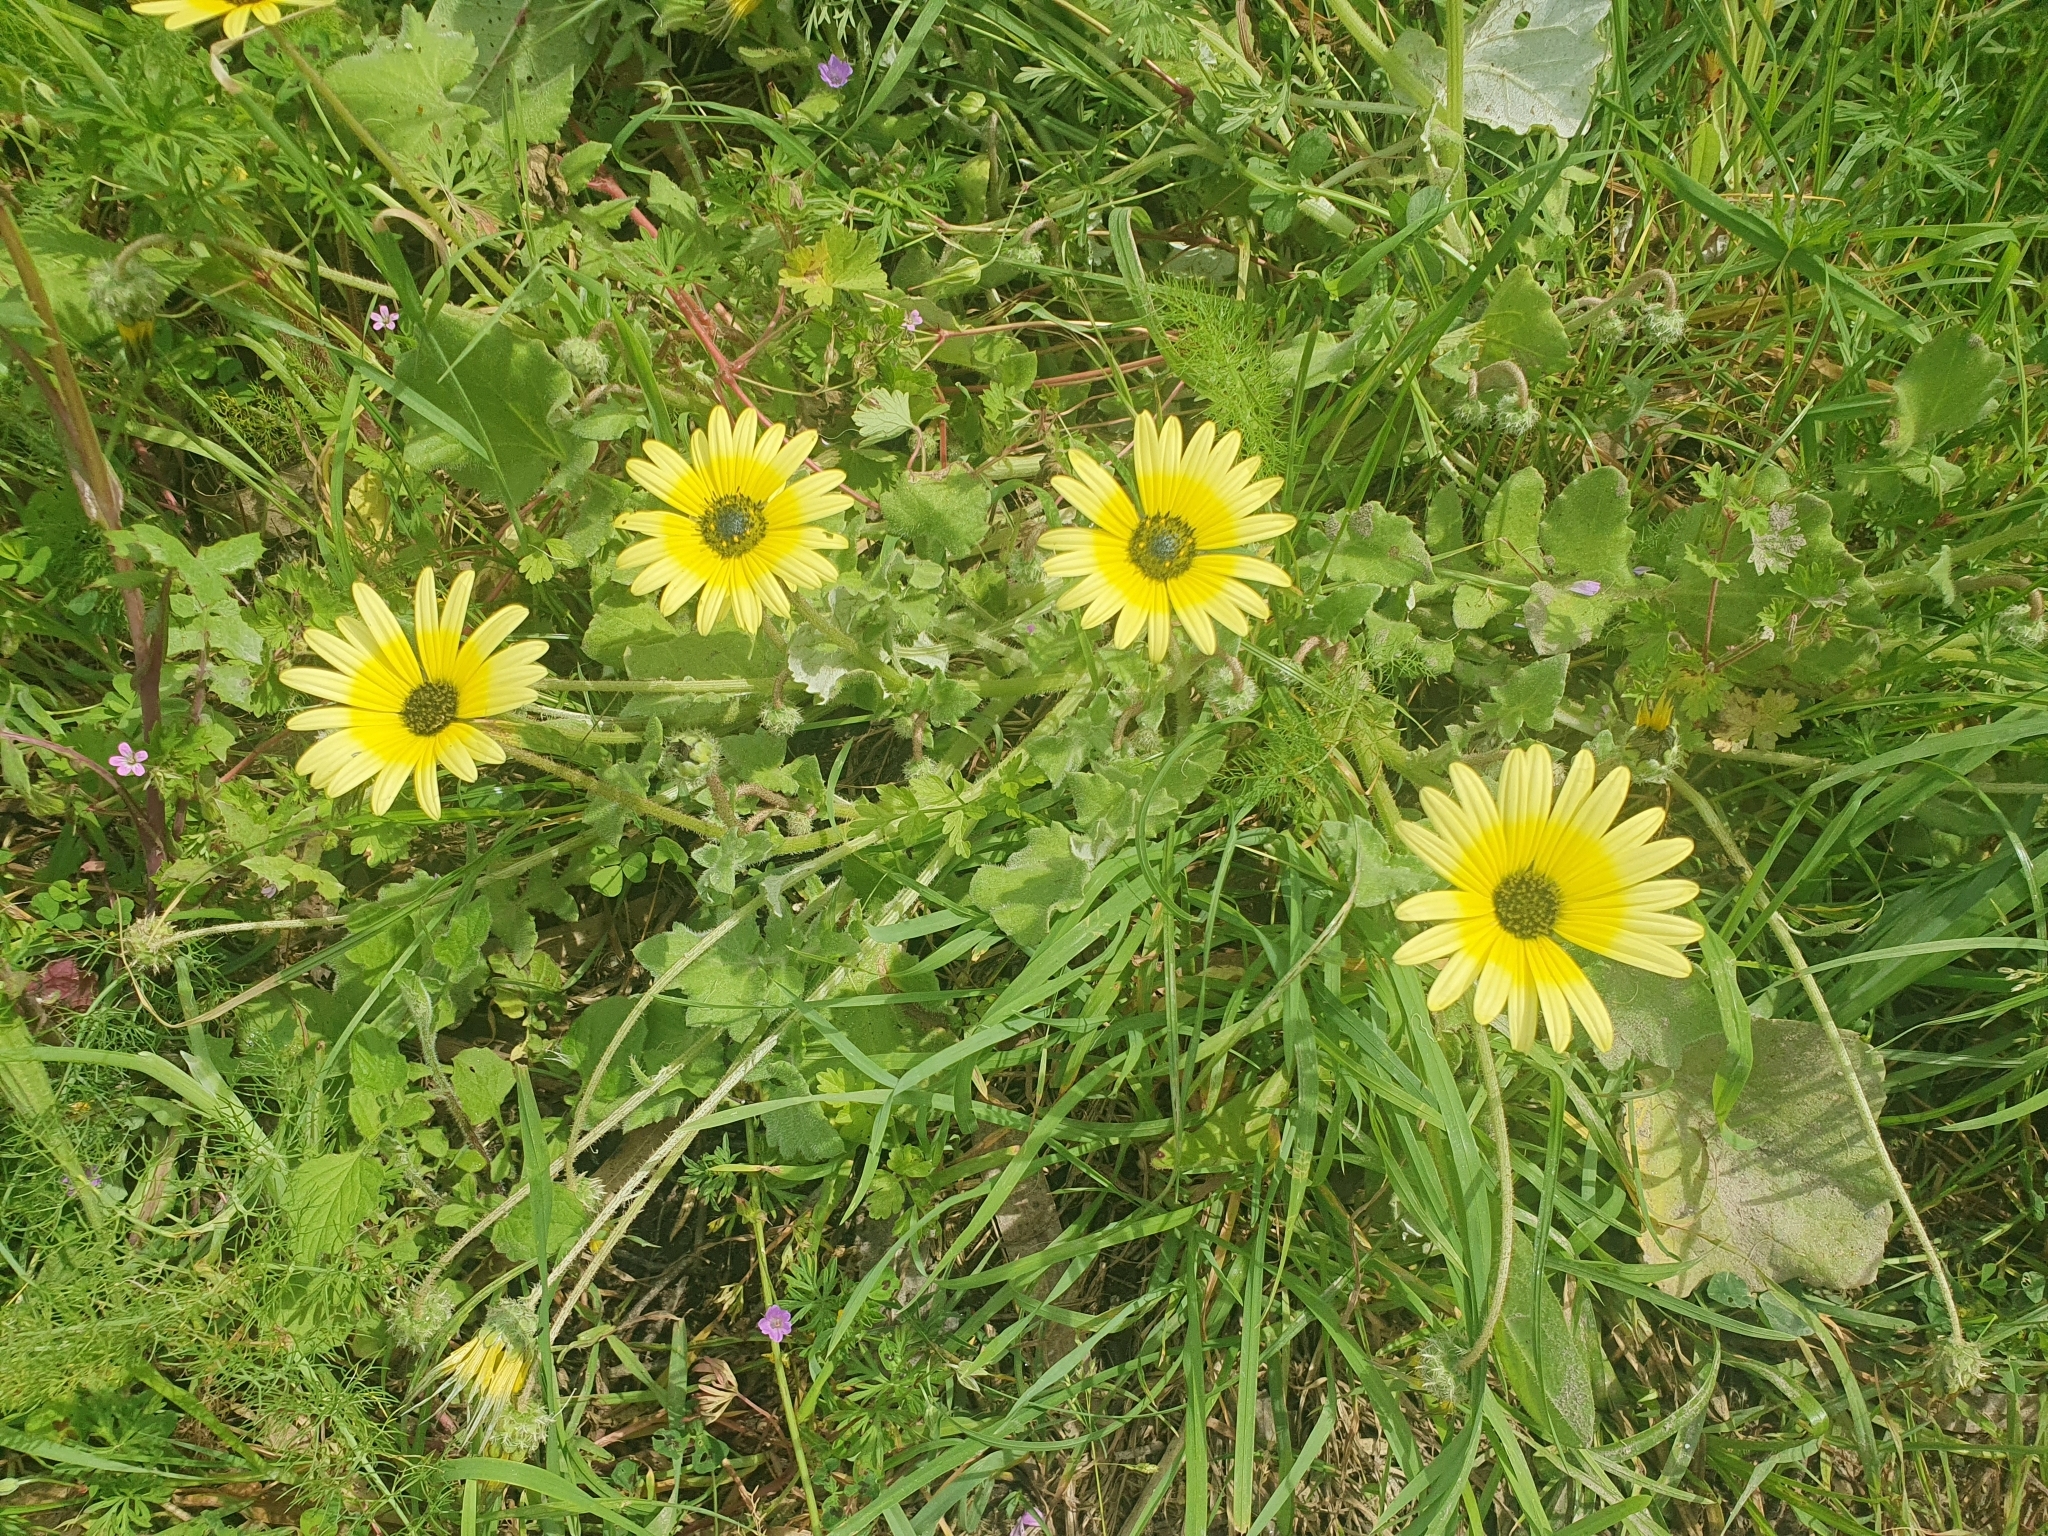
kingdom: Plantae
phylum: Tracheophyta
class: Magnoliopsida
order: Asterales
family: Asteraceae
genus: Arctotheca
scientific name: Arctotheca calendula
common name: Capeweed
